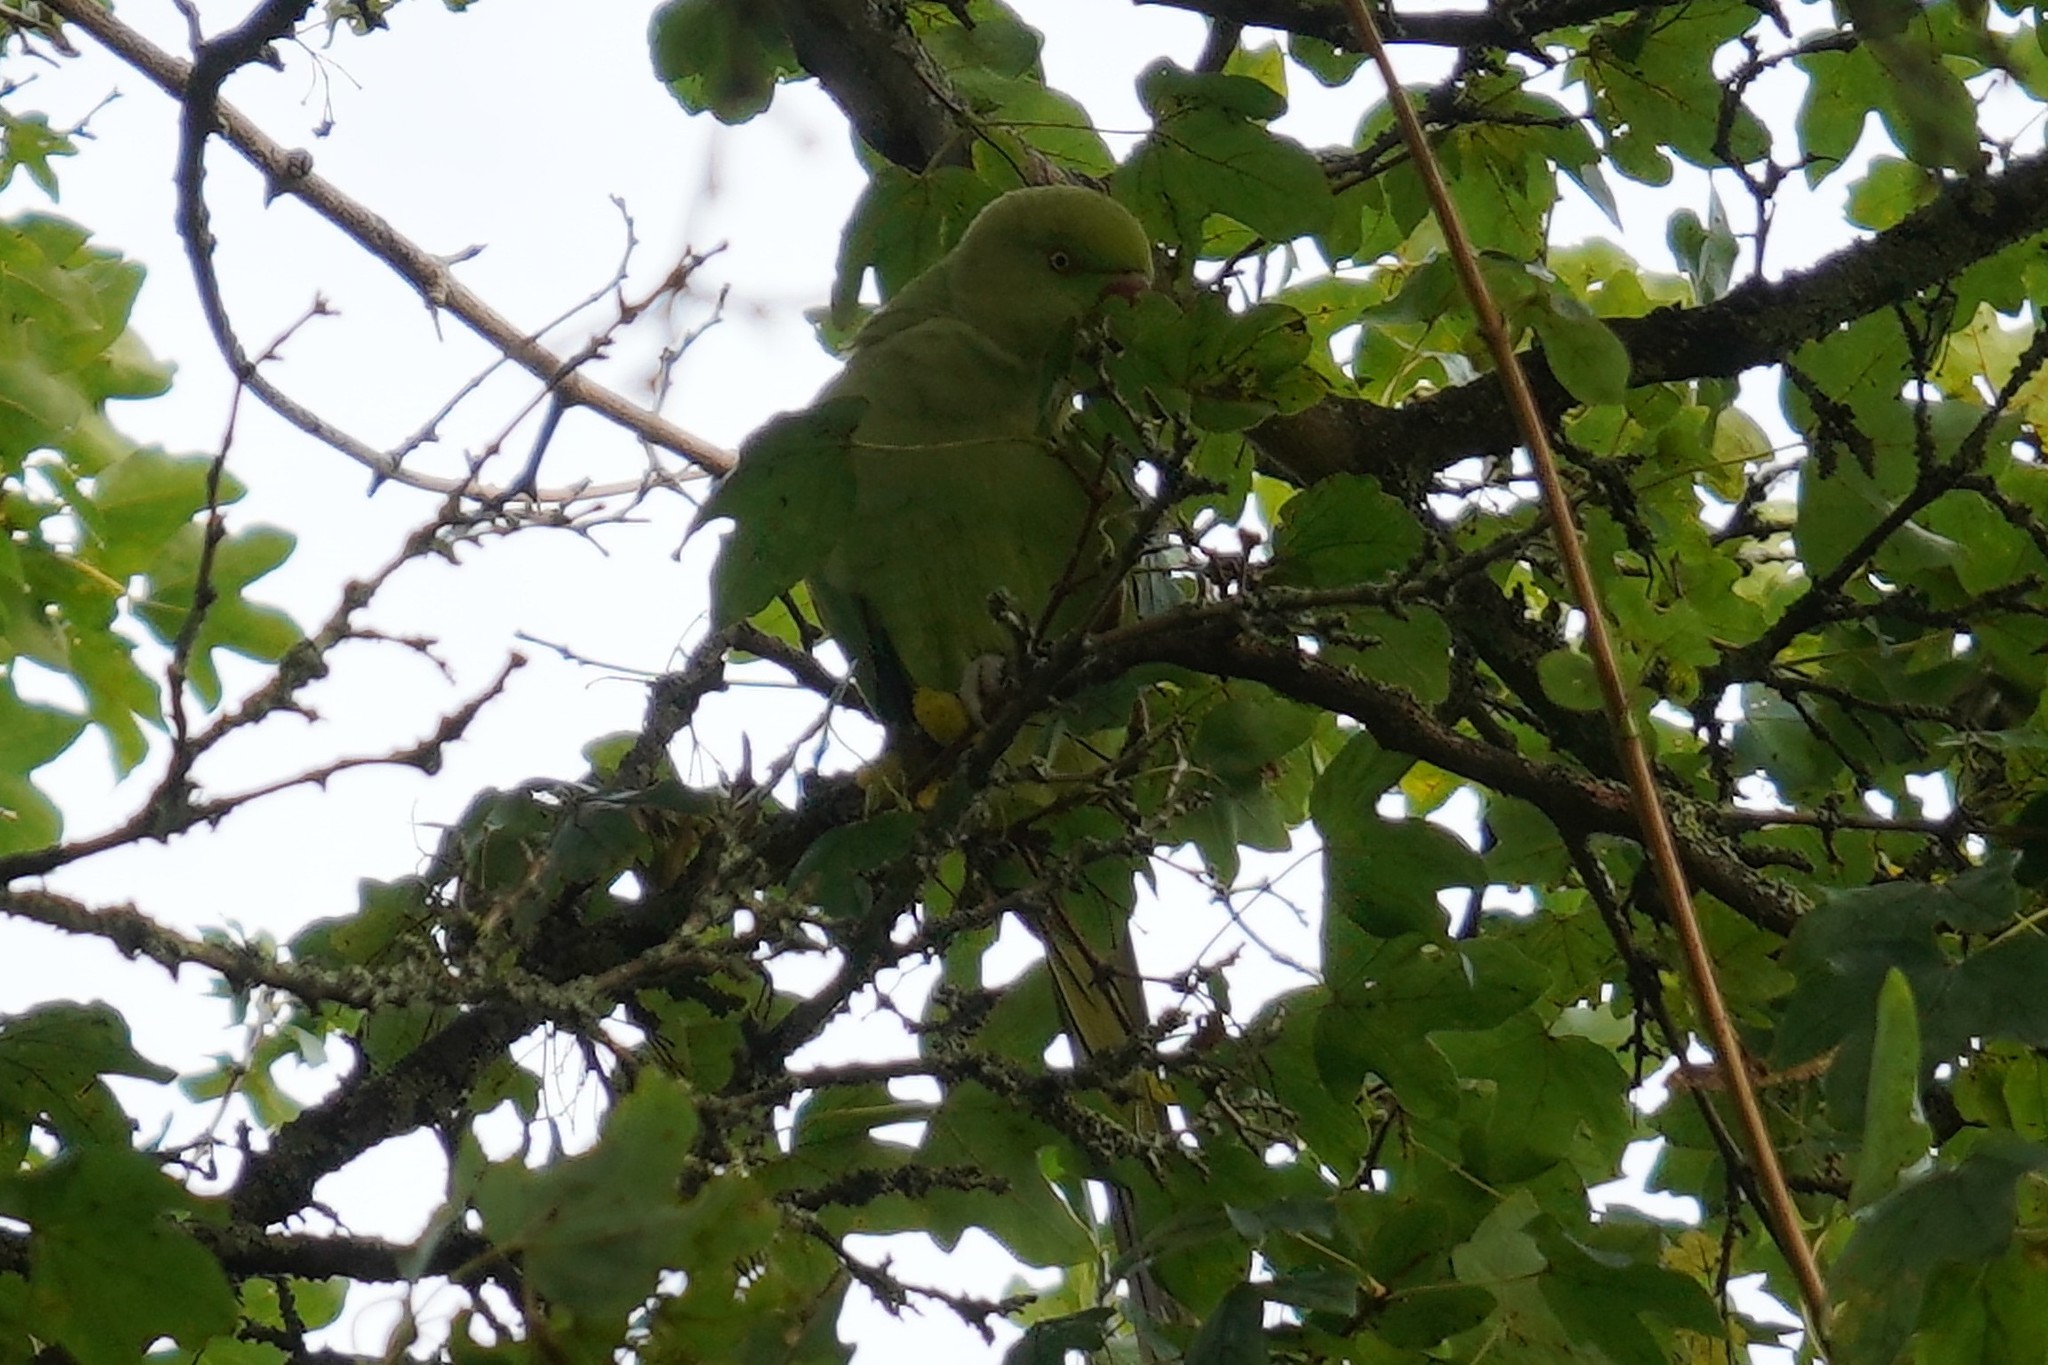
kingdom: Animalia
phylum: Chordata
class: Aves
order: Psittaciformes
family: Psittacidae
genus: Psittacula
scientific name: Psittacula krameri
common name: Rose-ringed parakeet
